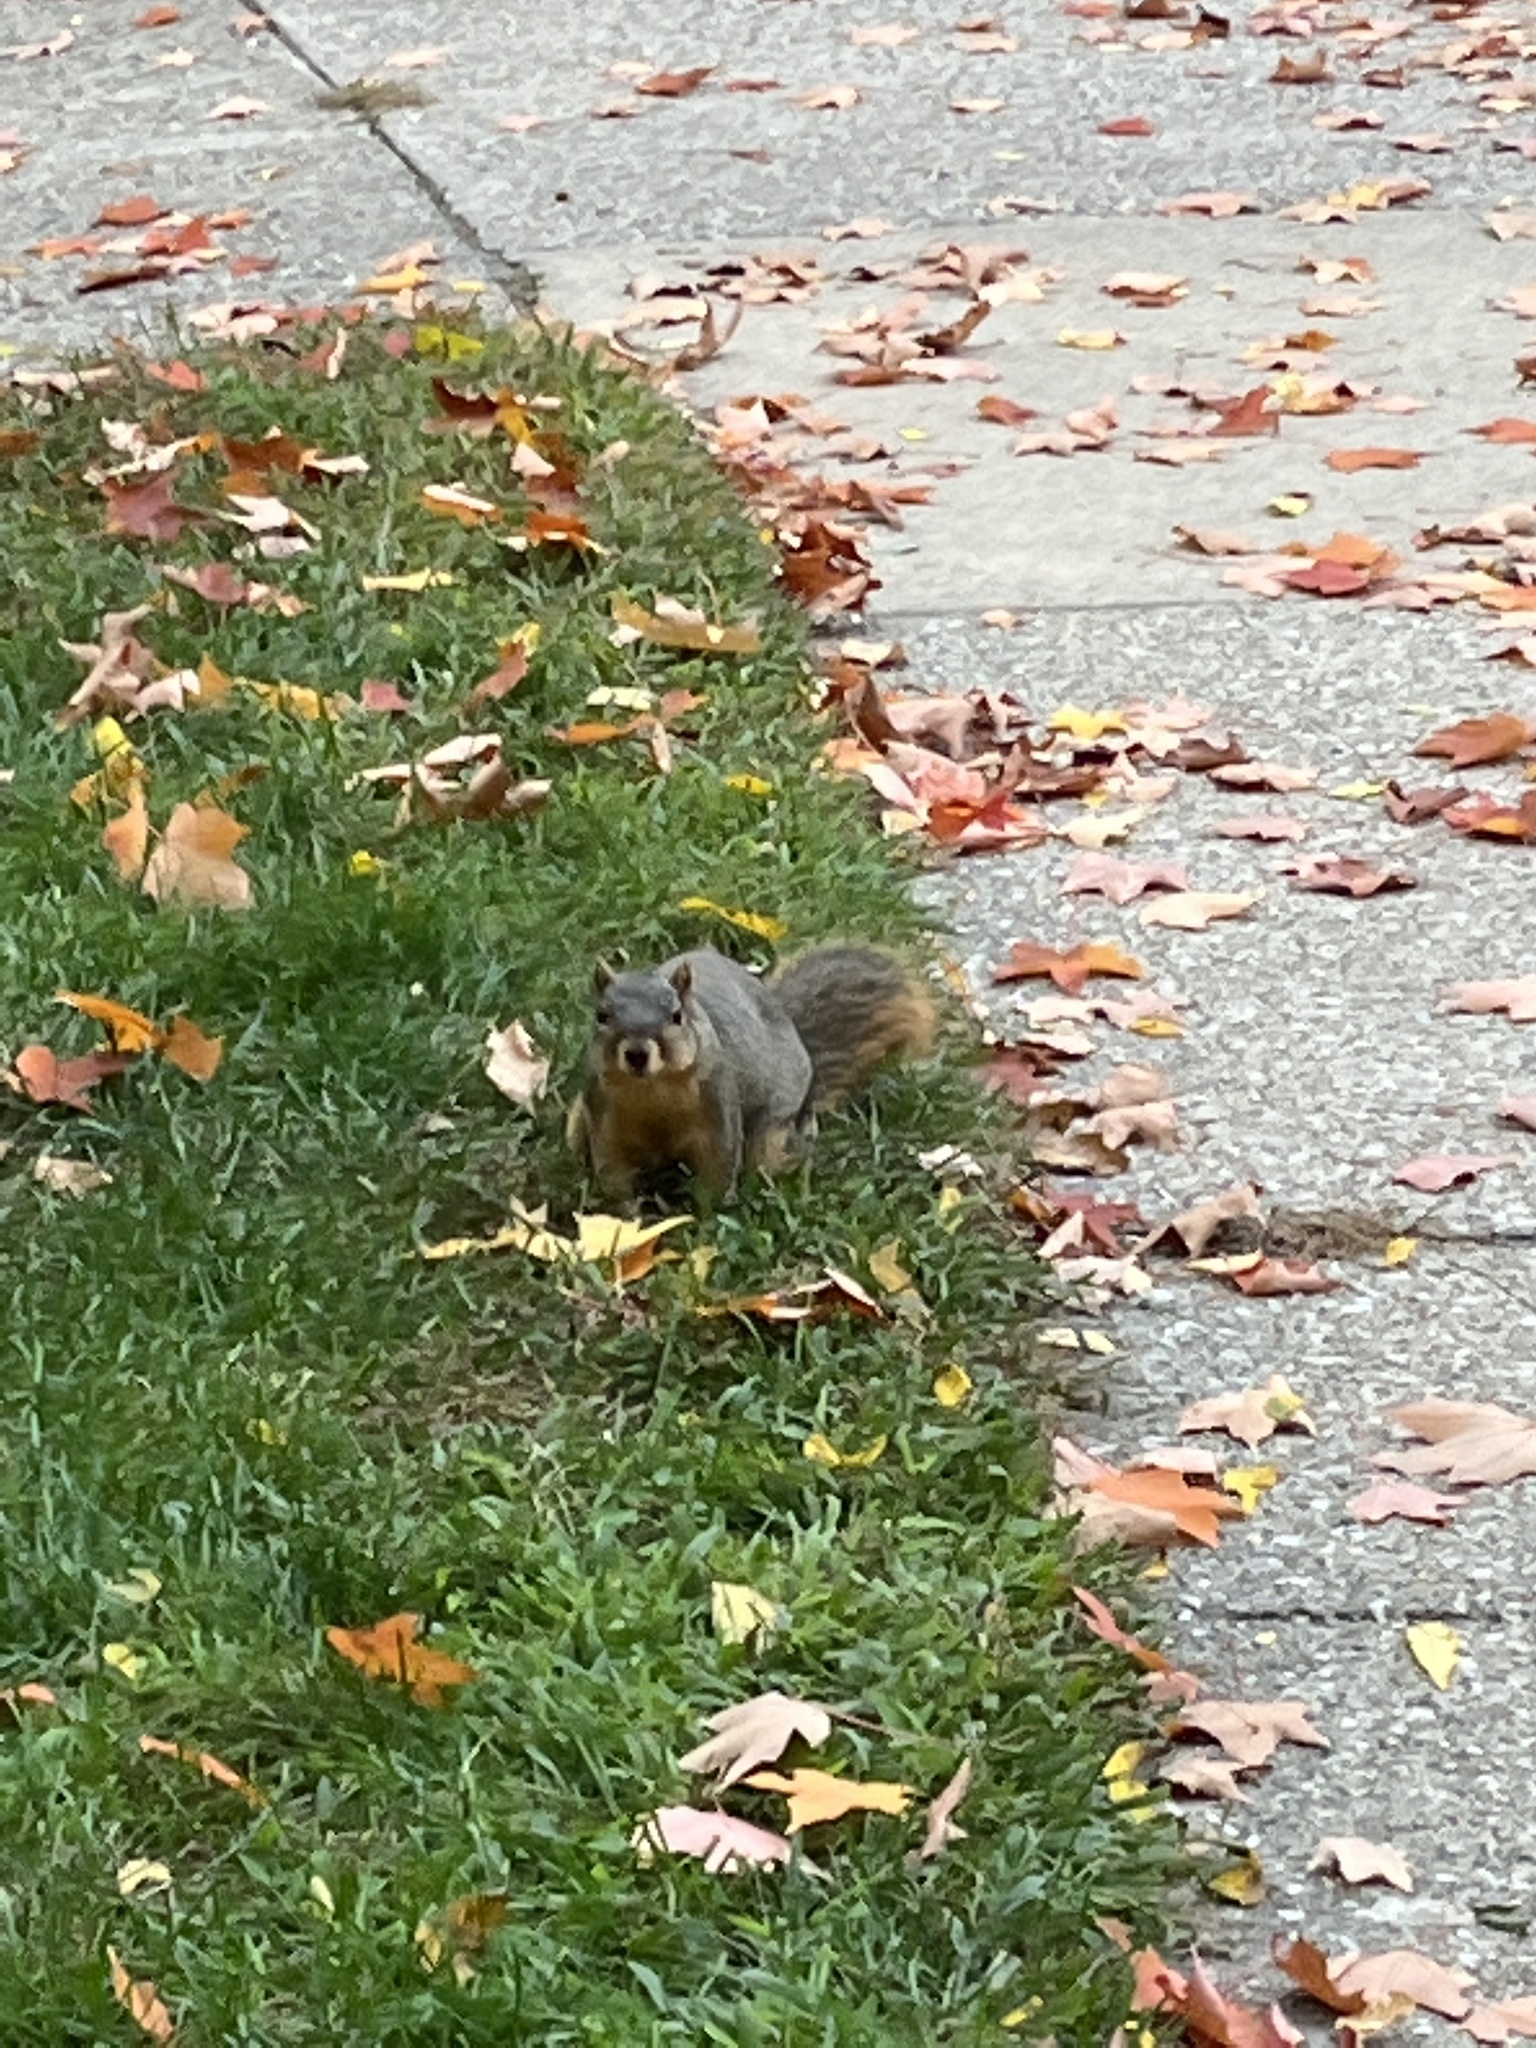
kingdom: Animalia
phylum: Chordata
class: Mammalia
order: Rodentia
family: Sciuridae
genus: Sciurus
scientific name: Sciurus niger
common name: Fox squirrel
